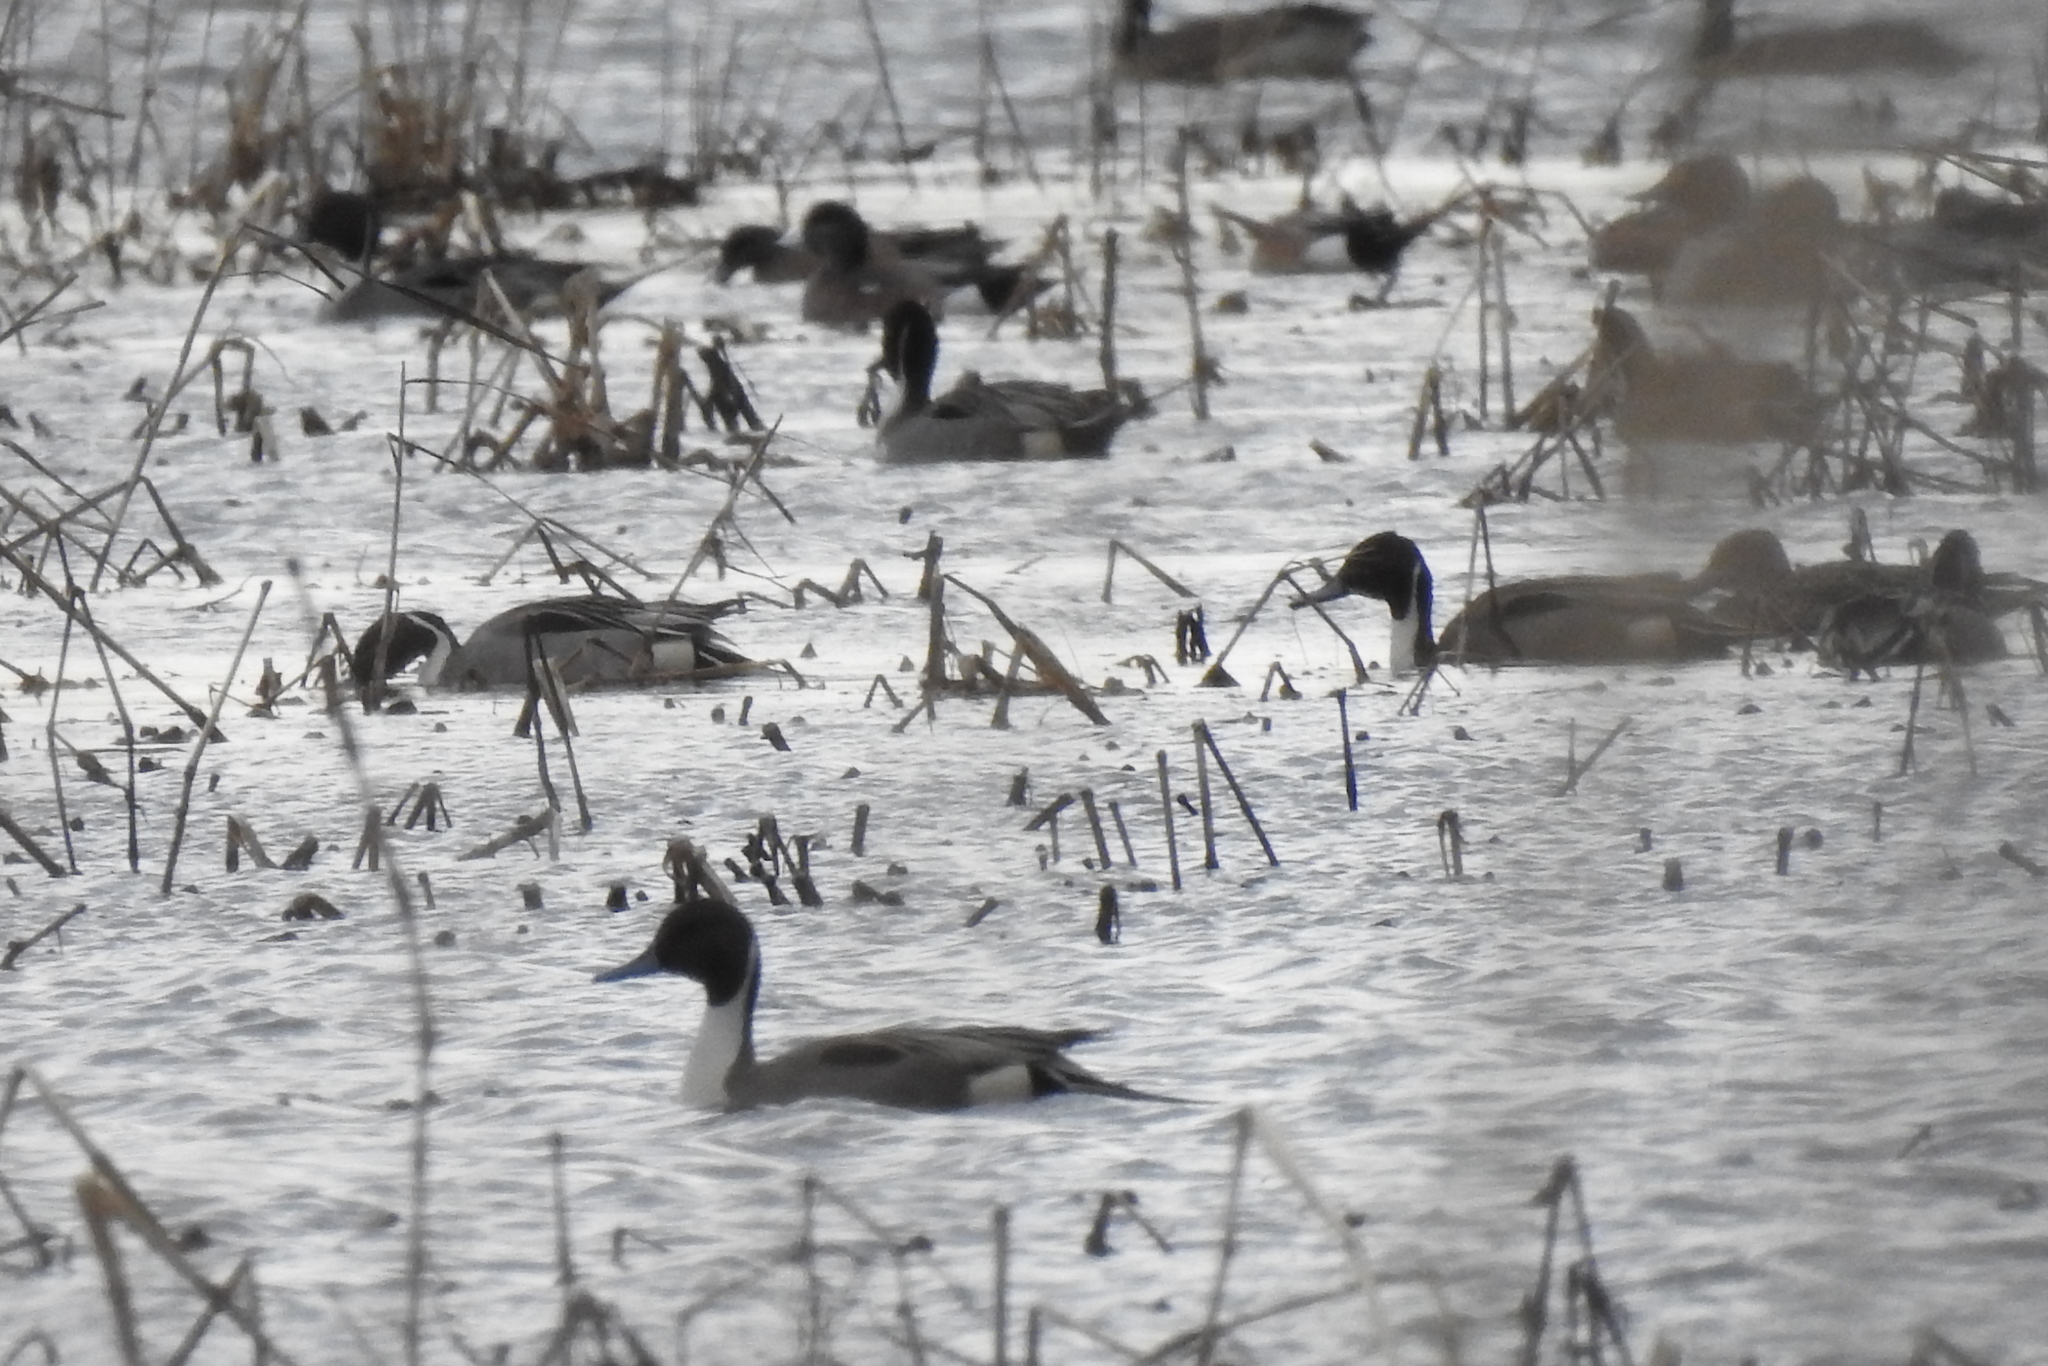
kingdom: Animalia
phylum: Chordata
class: Aves
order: Anseriformes
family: Anatidae
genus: Anas
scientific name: Anas acuta
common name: Northern pintail
